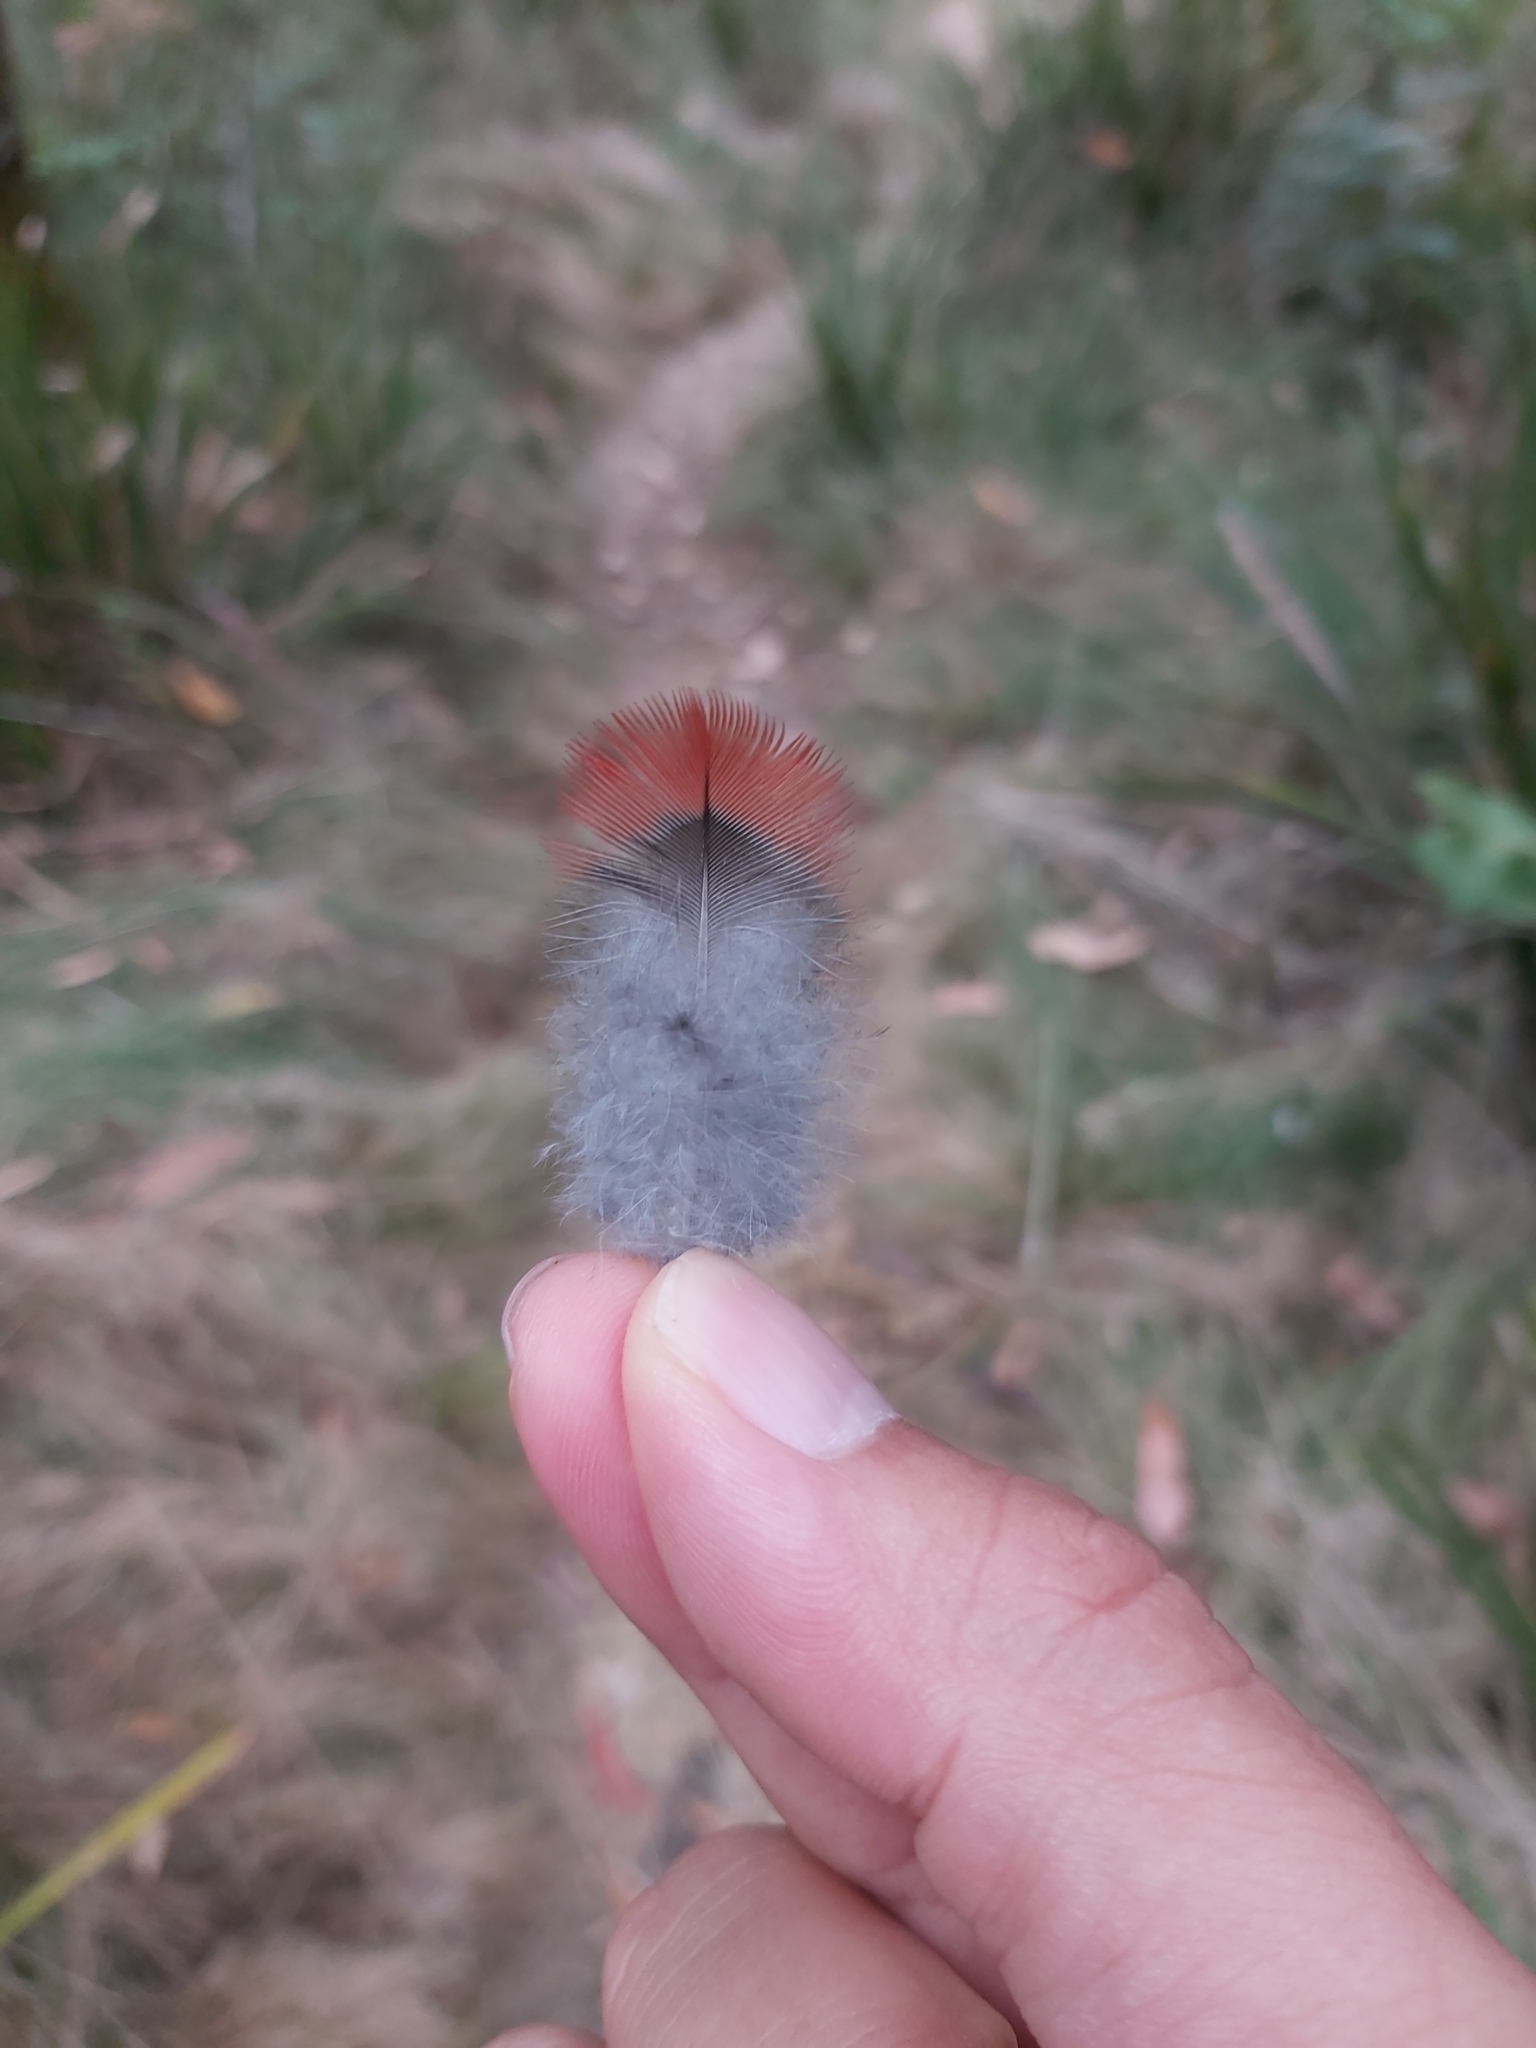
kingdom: Animalia
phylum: Chordata
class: Aves
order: Psittaciformes
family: Psittacidae
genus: Platycercus
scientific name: Platycercus elegans
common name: Crimson rosella
